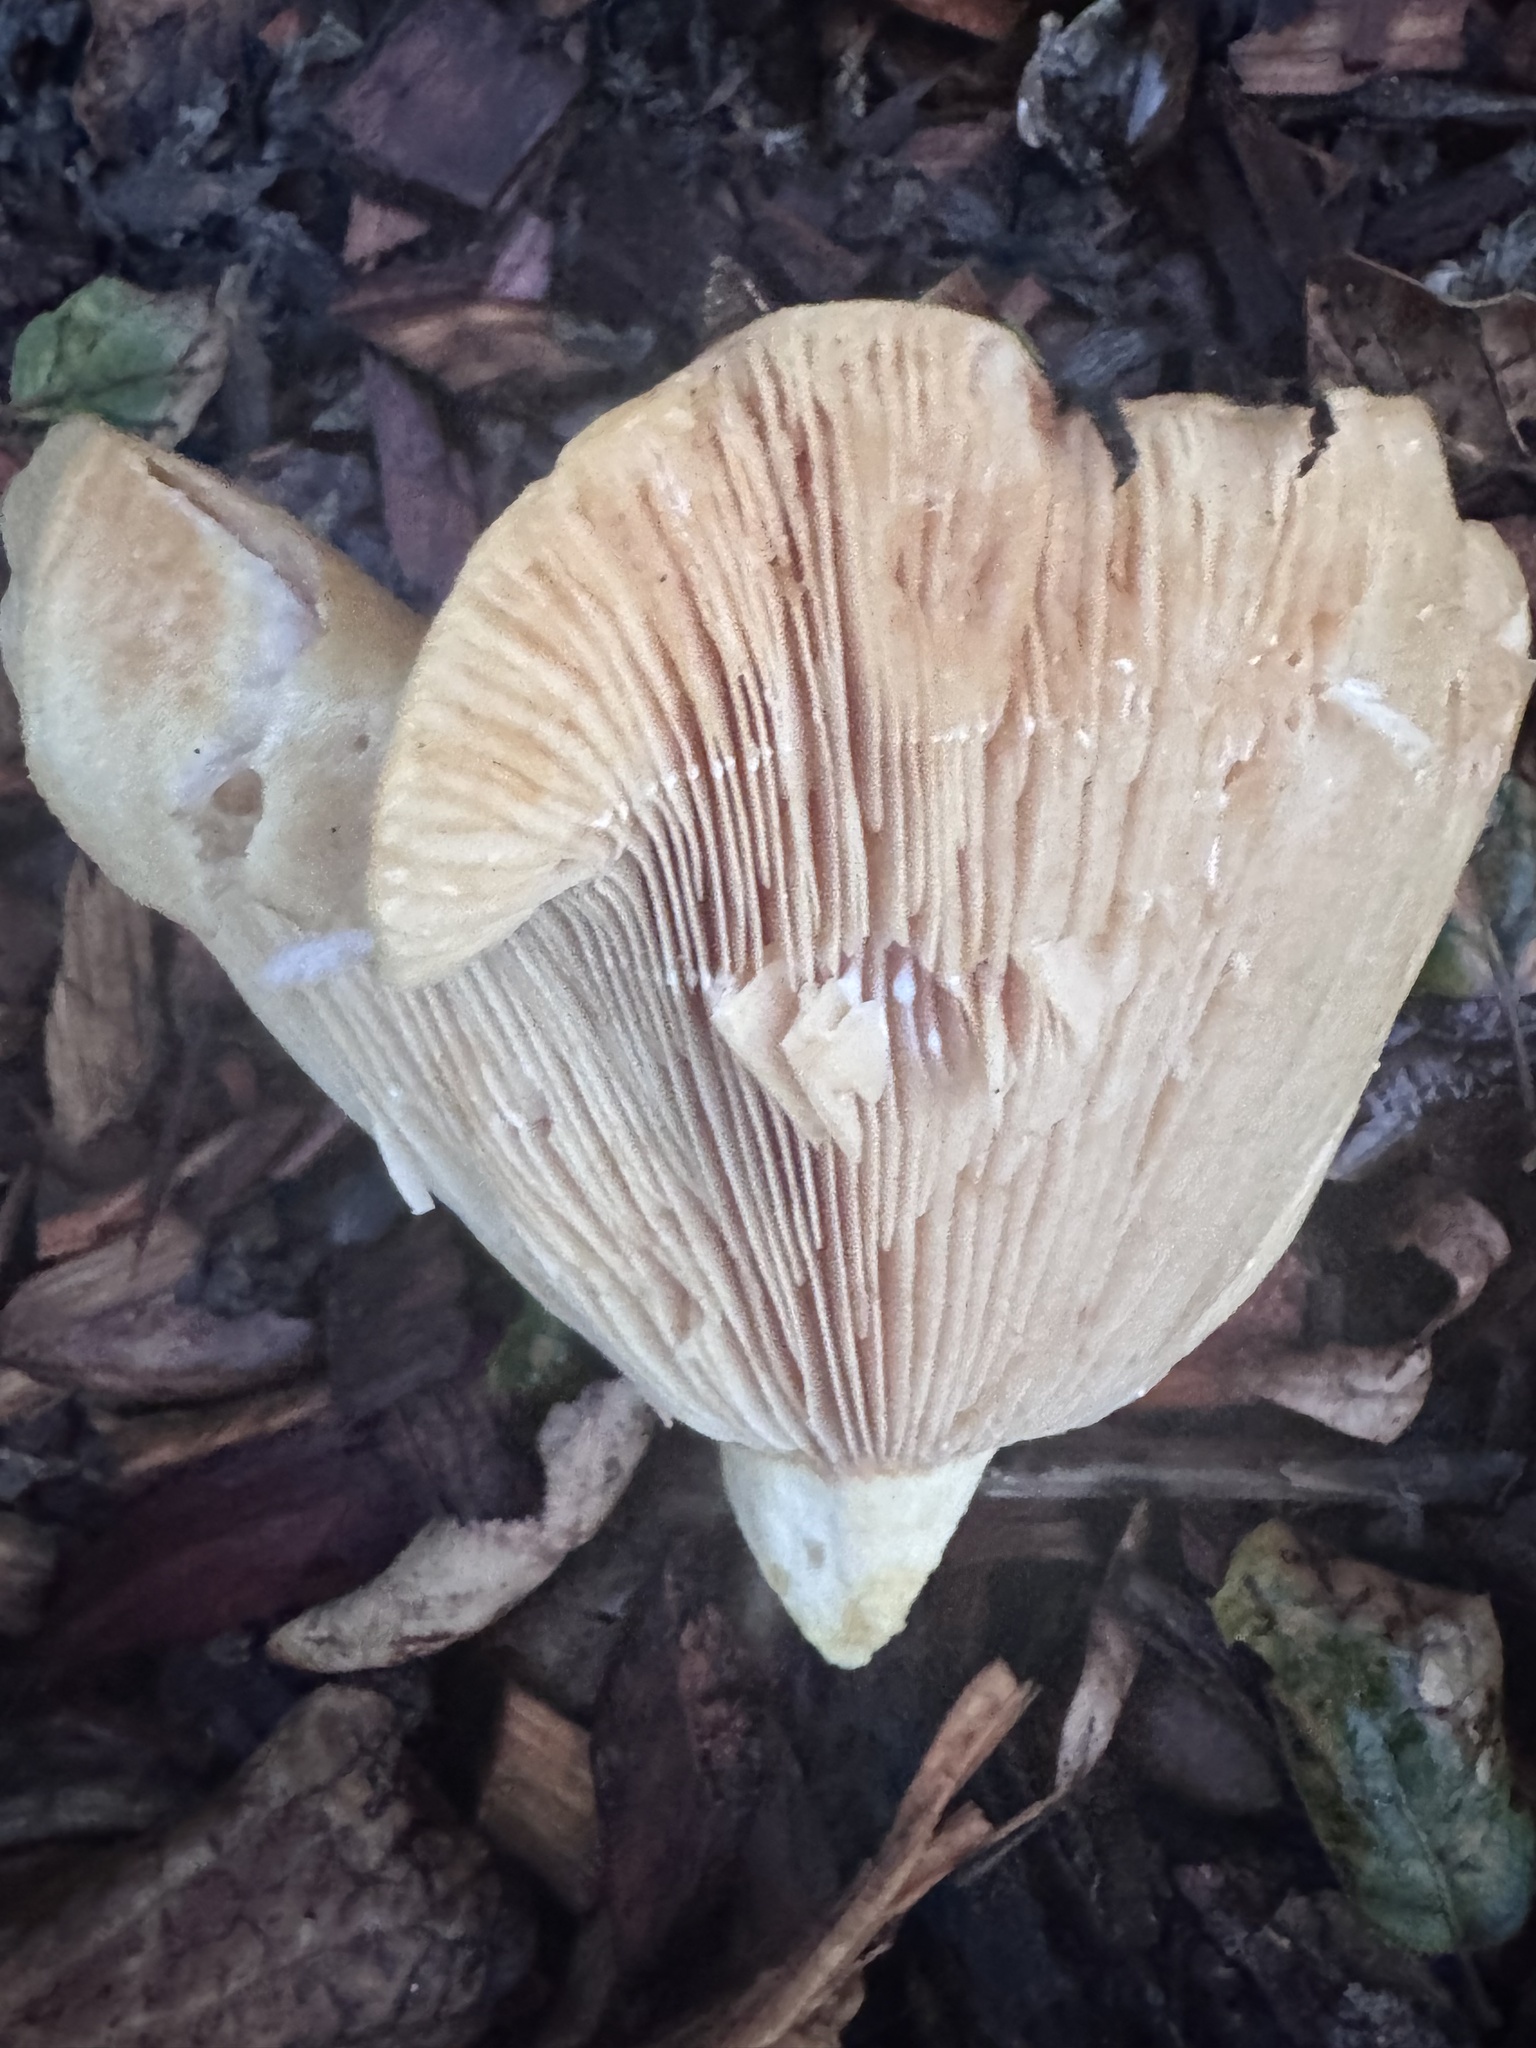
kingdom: Fungi
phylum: Basidiomycota
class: Agaricomycetes
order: Russulales
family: Russulaceae
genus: Lactarius
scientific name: Lactarius alnicola
